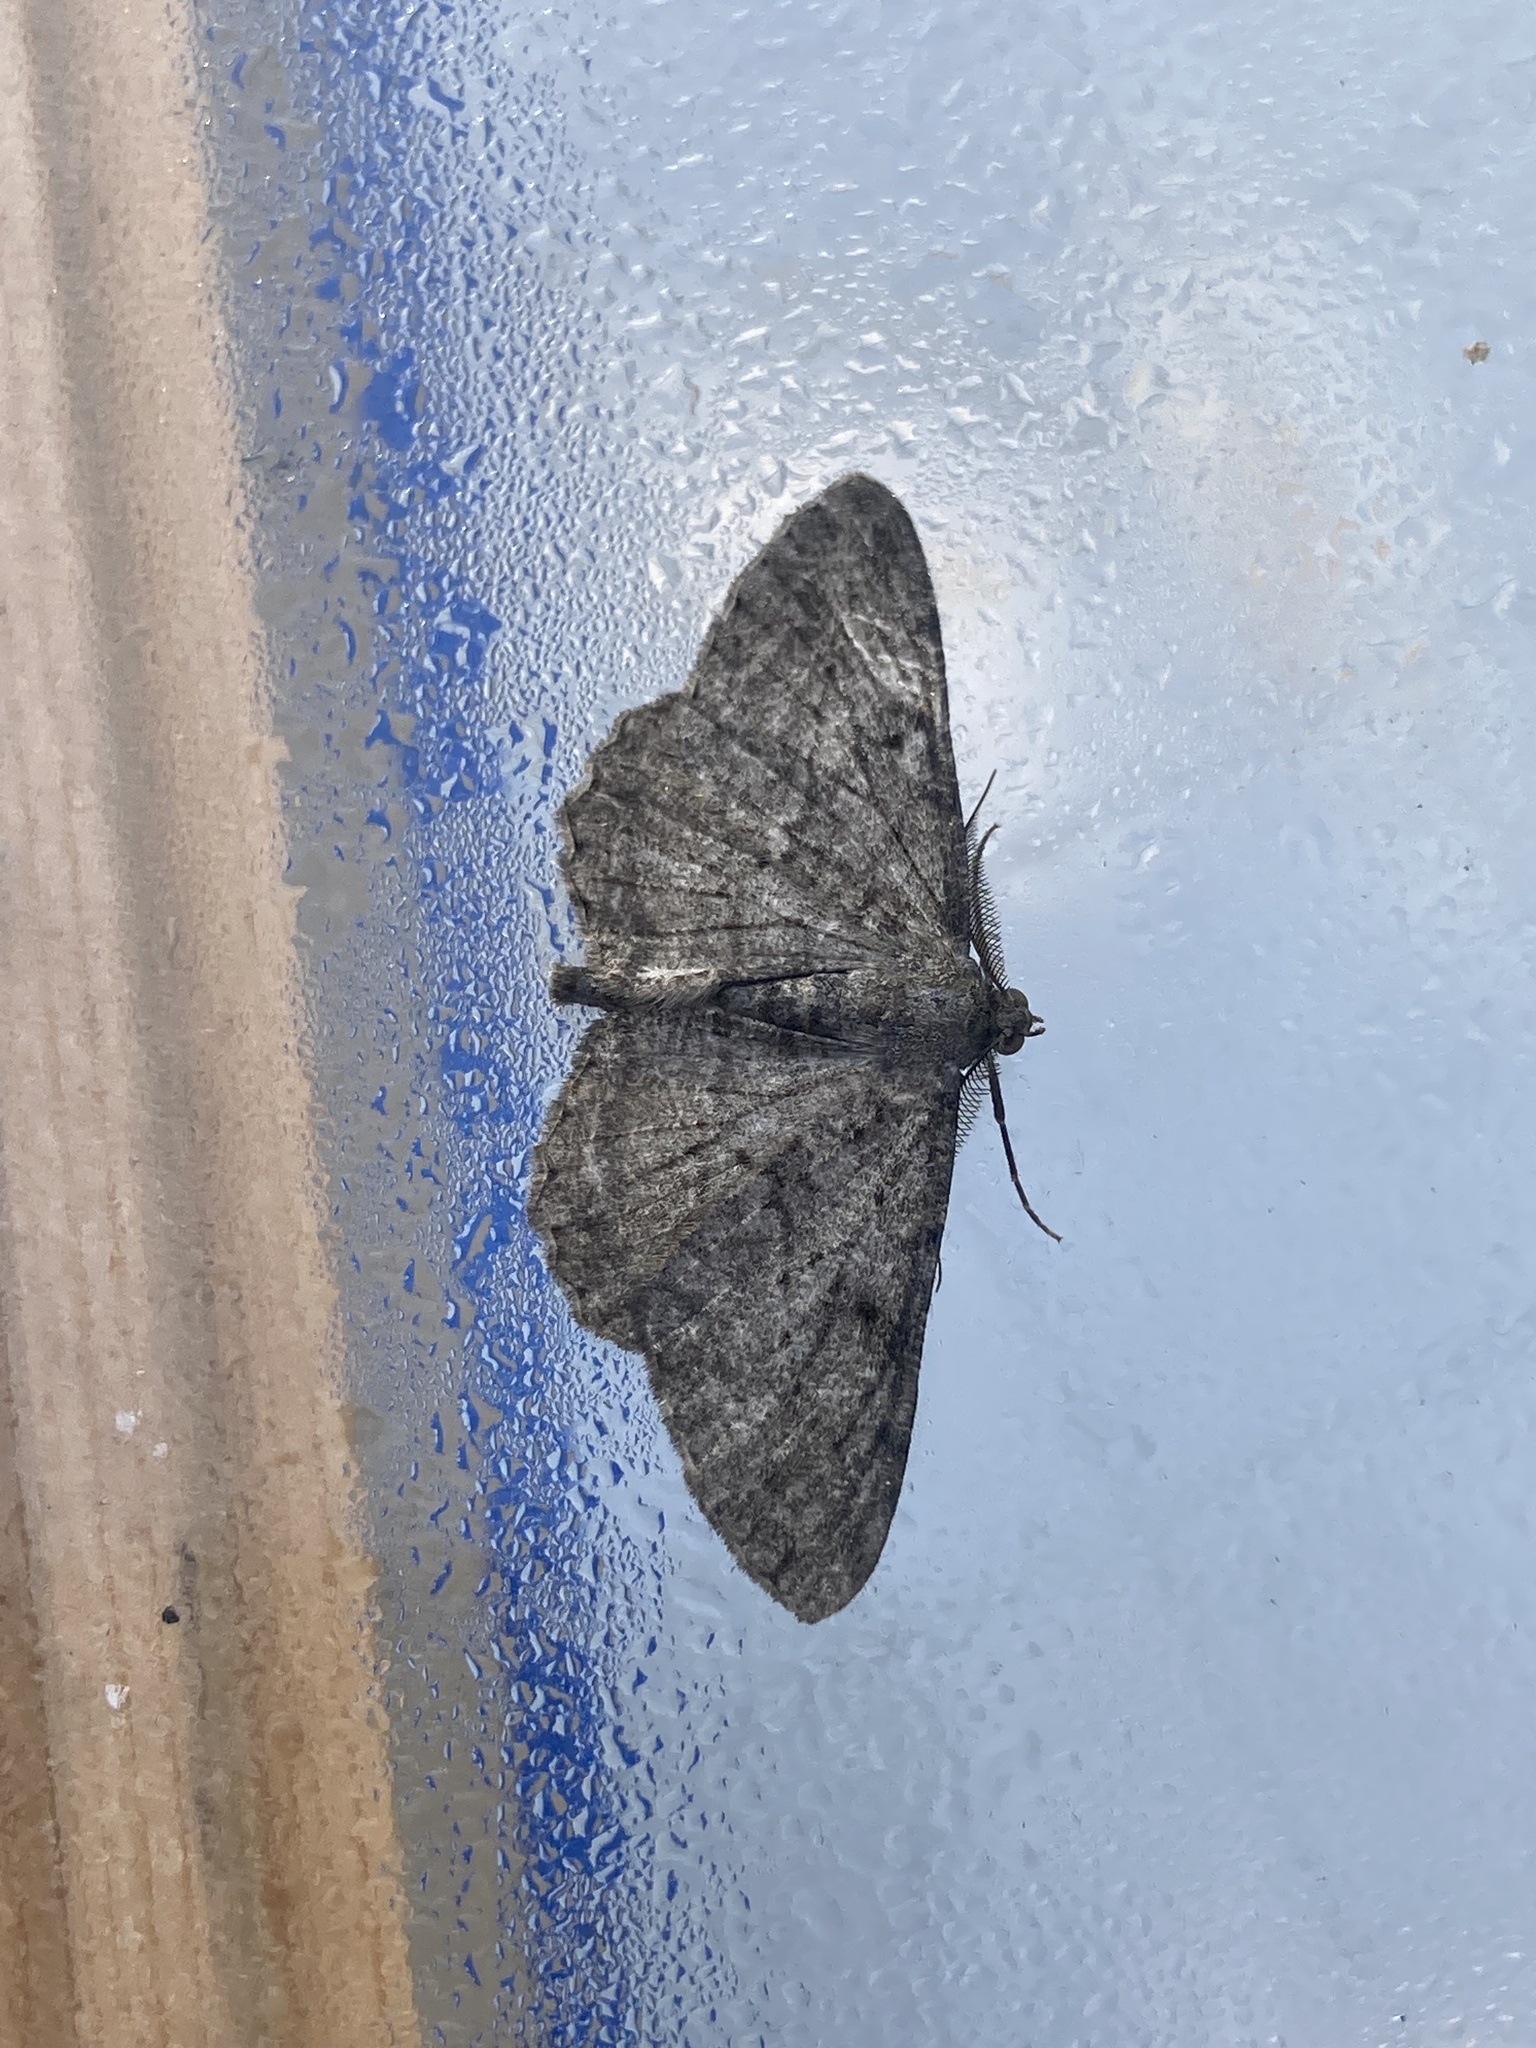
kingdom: Animalia
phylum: Arthropoda
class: Insecta
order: Lepidoptera
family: Geometridae
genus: Peribatodes
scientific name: Peribatodes rhomboidaria
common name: Willow beauty
